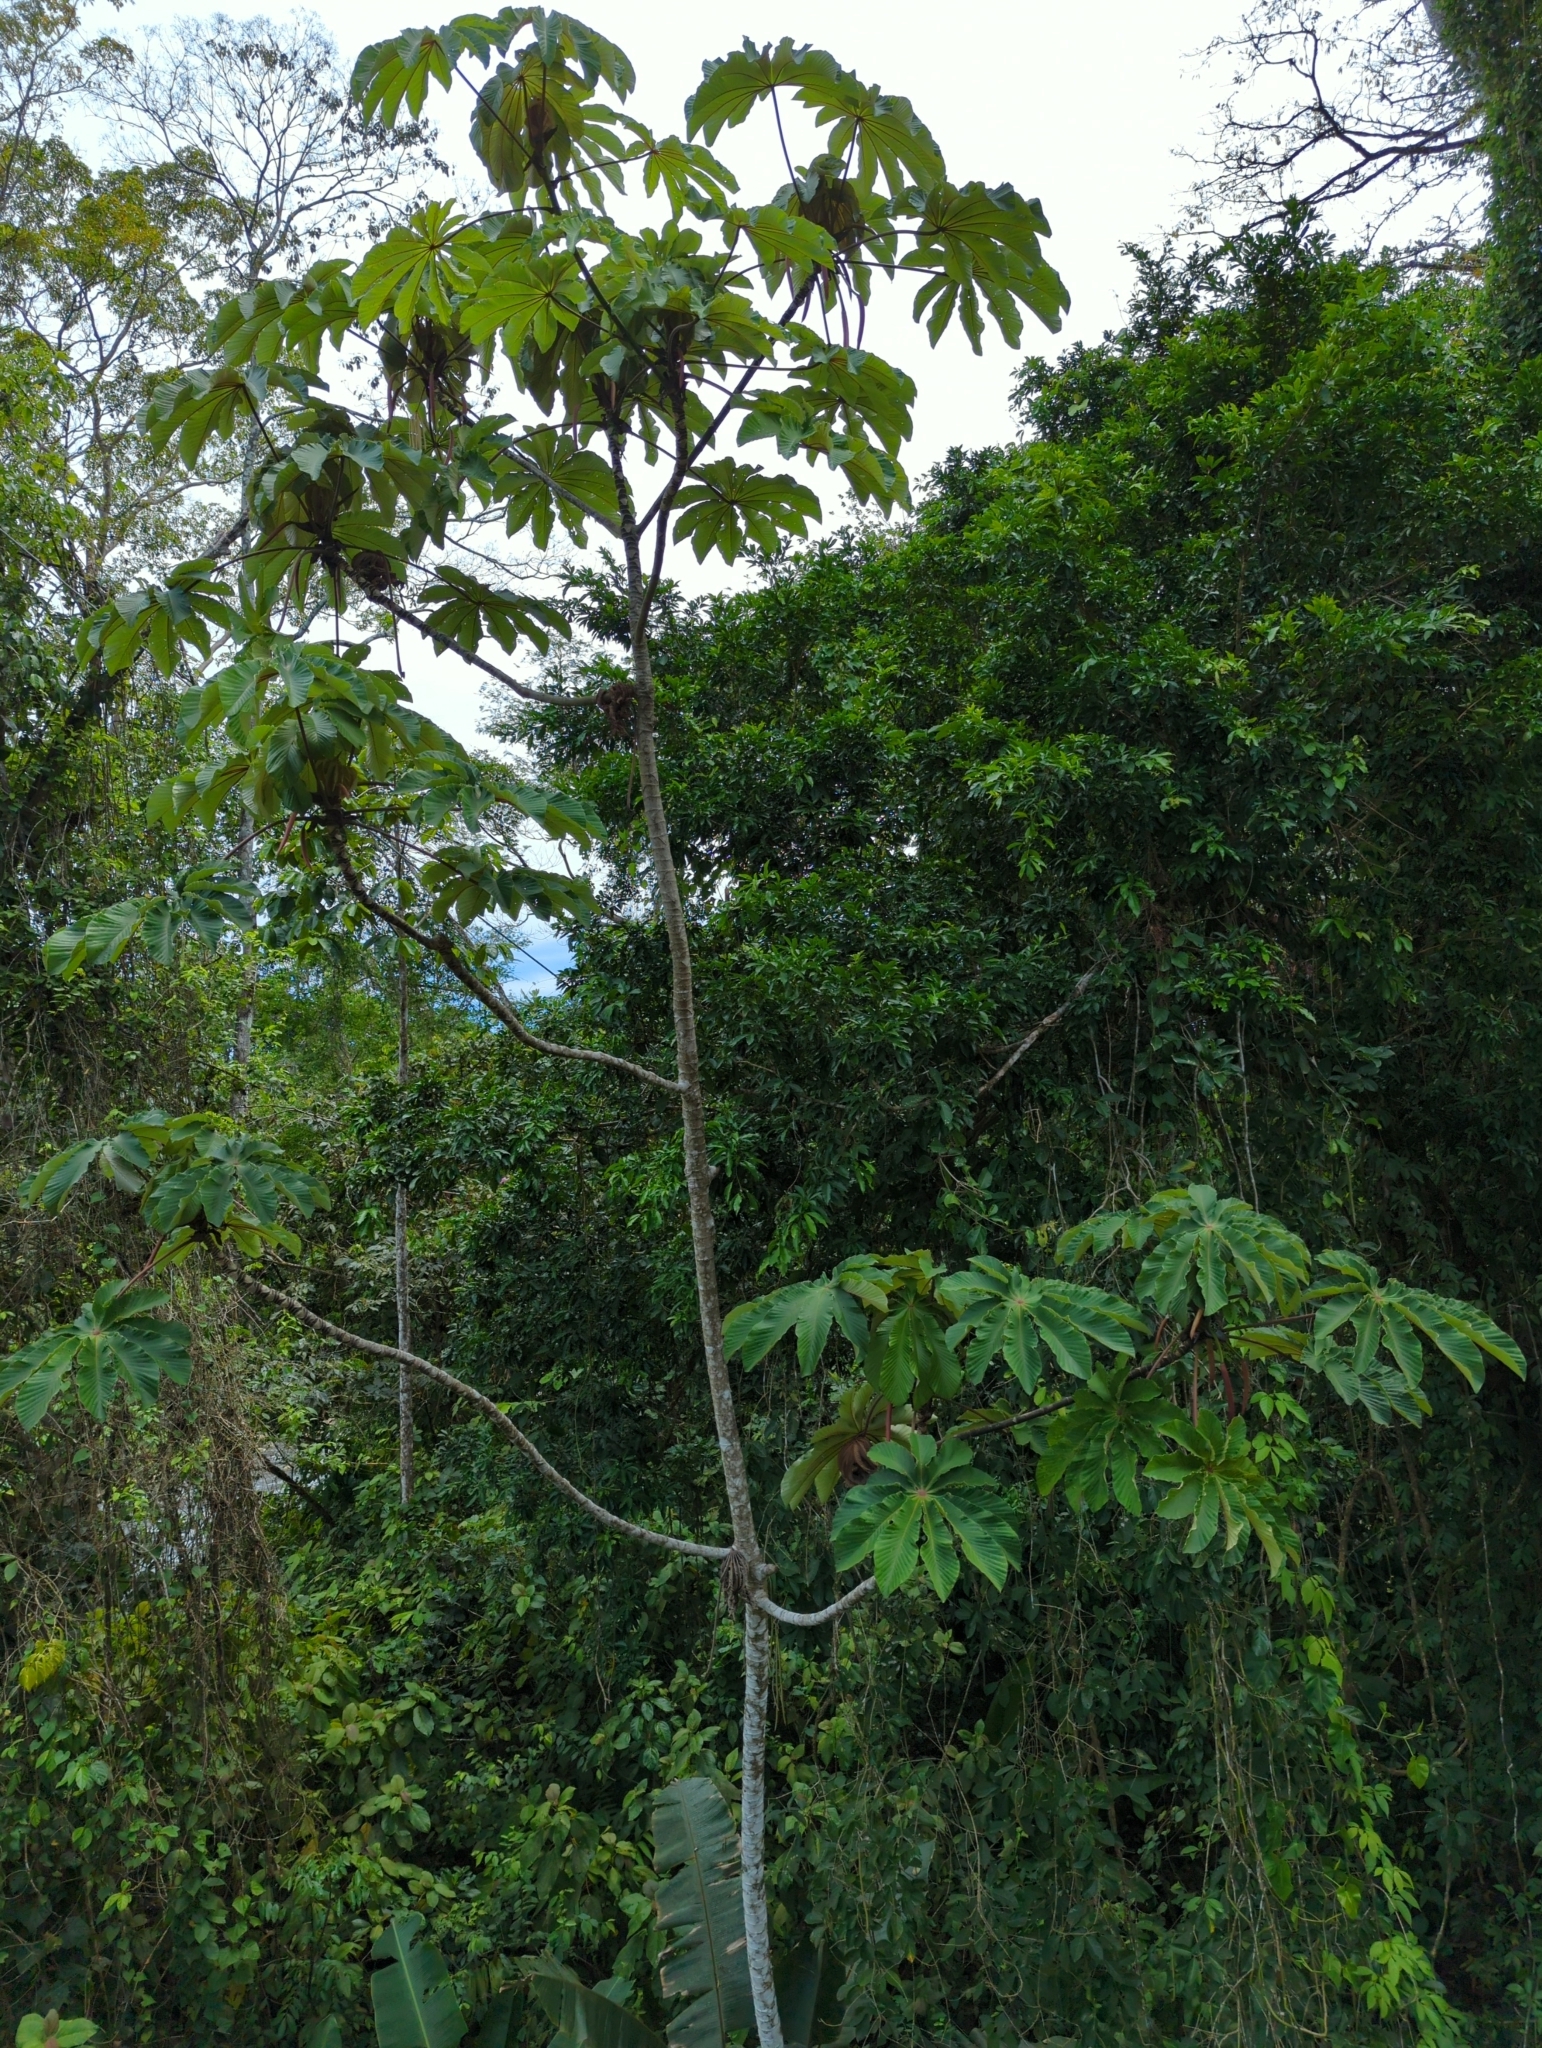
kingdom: Plantae
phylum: Tracheophyta
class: Magnoliopsida
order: Rosales
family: Urticaceae
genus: Cecropia
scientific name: Cecropia obtusifolia
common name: Trumpet tree
